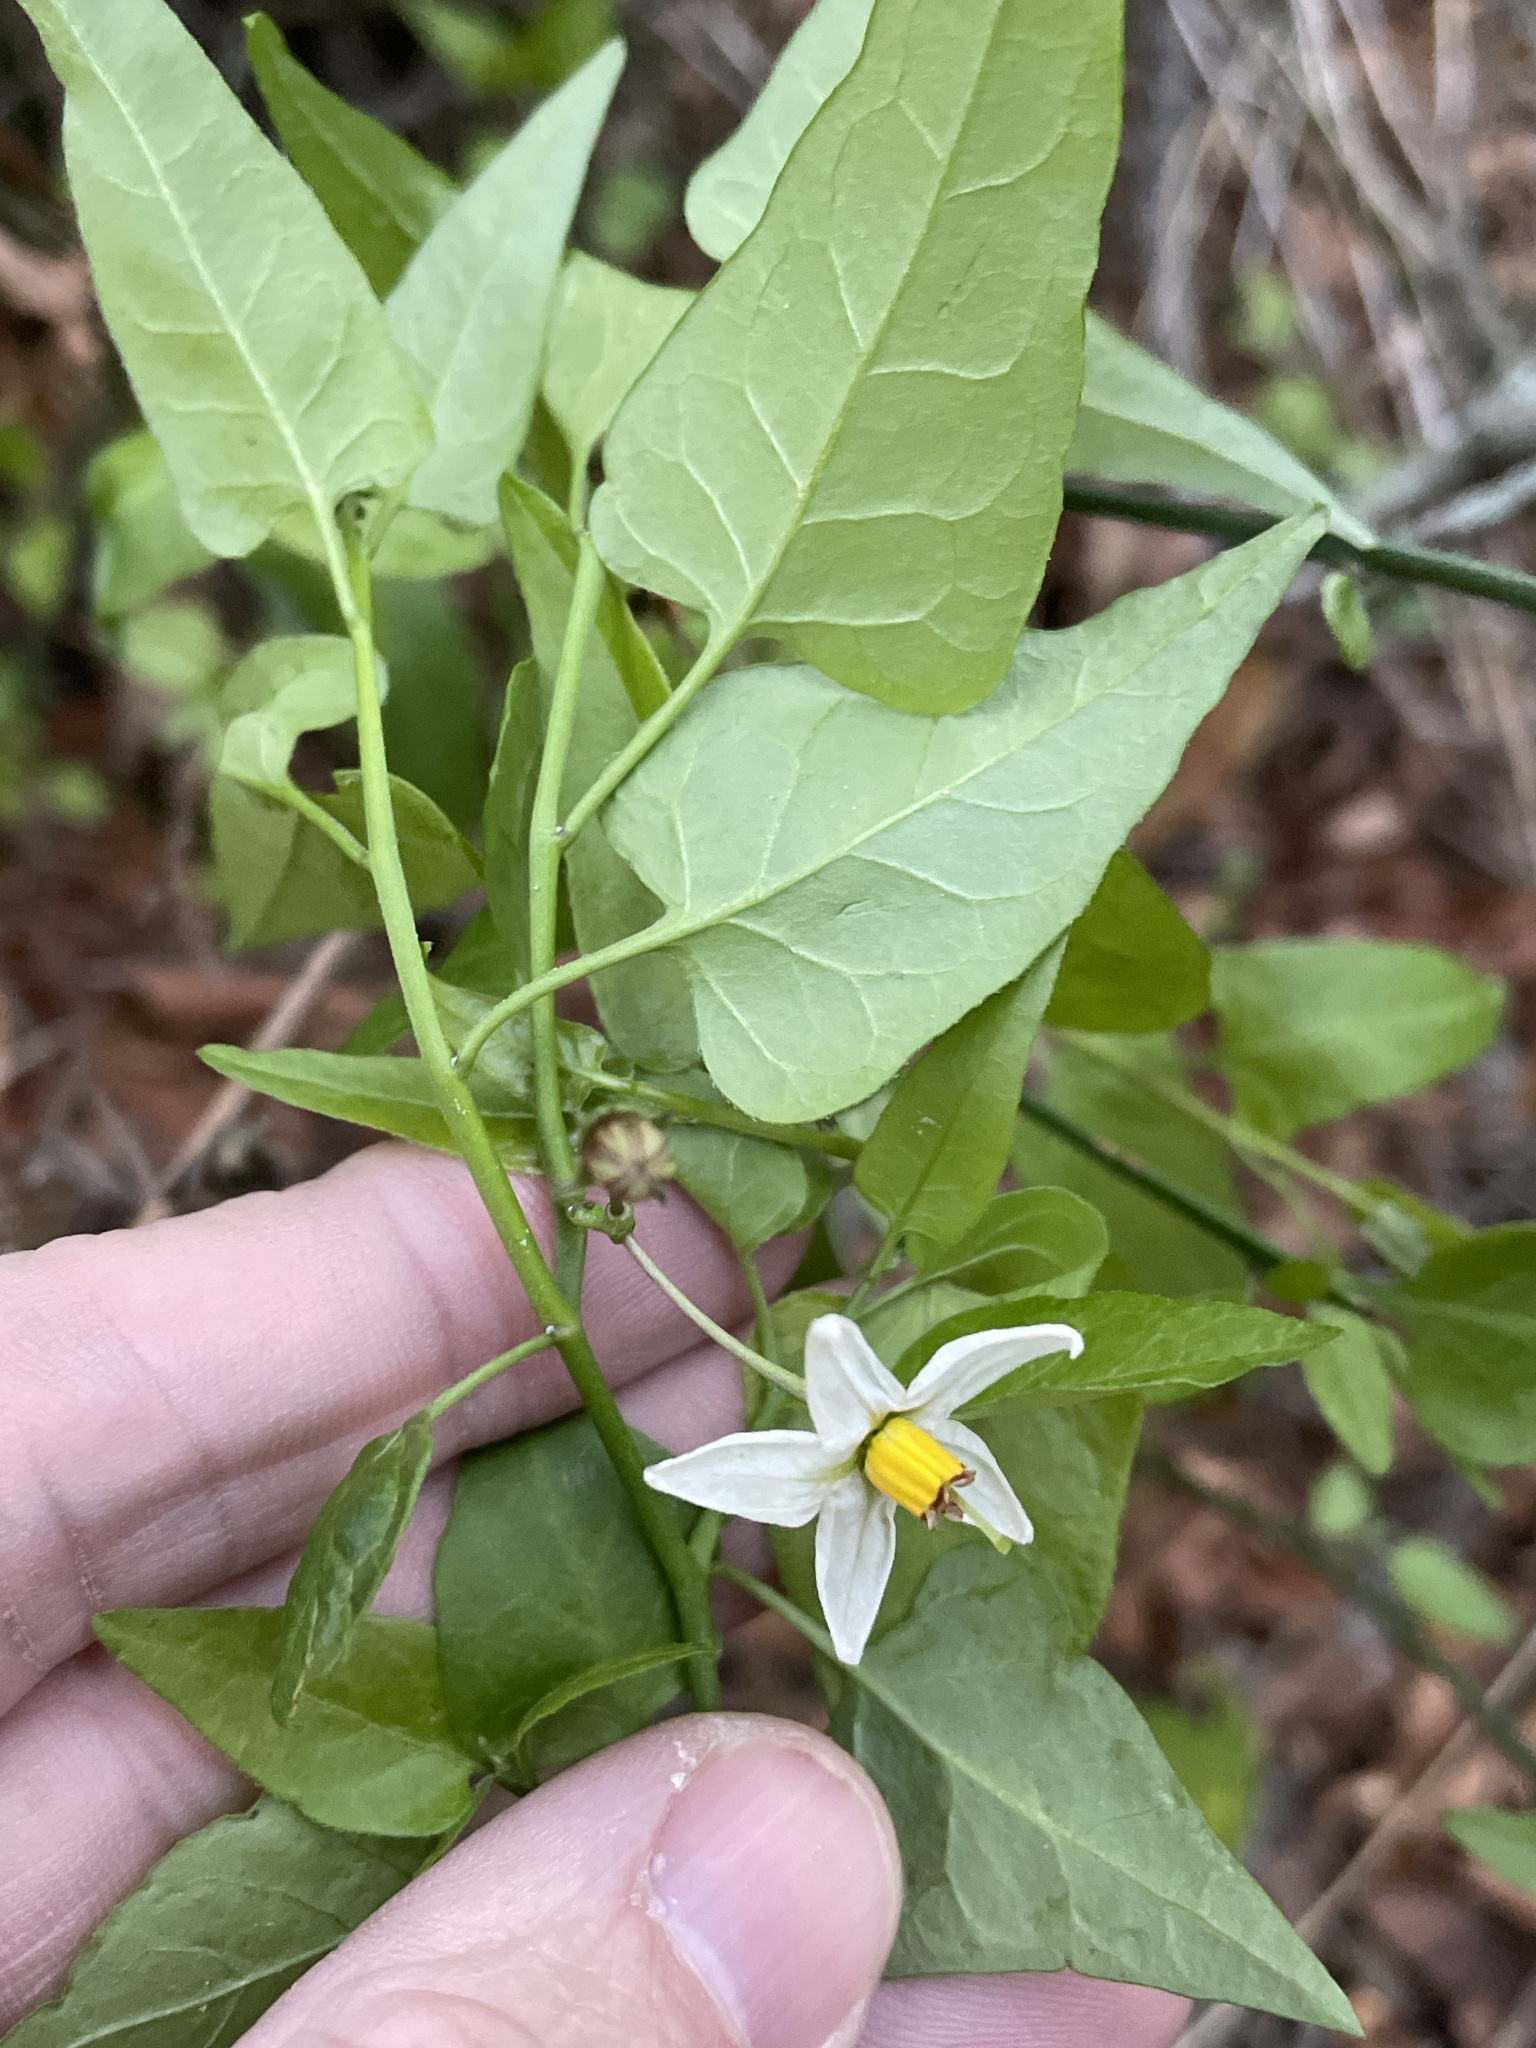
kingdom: Plantae
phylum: Tracheophyta
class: Magnoliopsida
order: Solanales
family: Solanaceae
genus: Solanum
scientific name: Solanum triquetrum
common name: Texas nightshade
